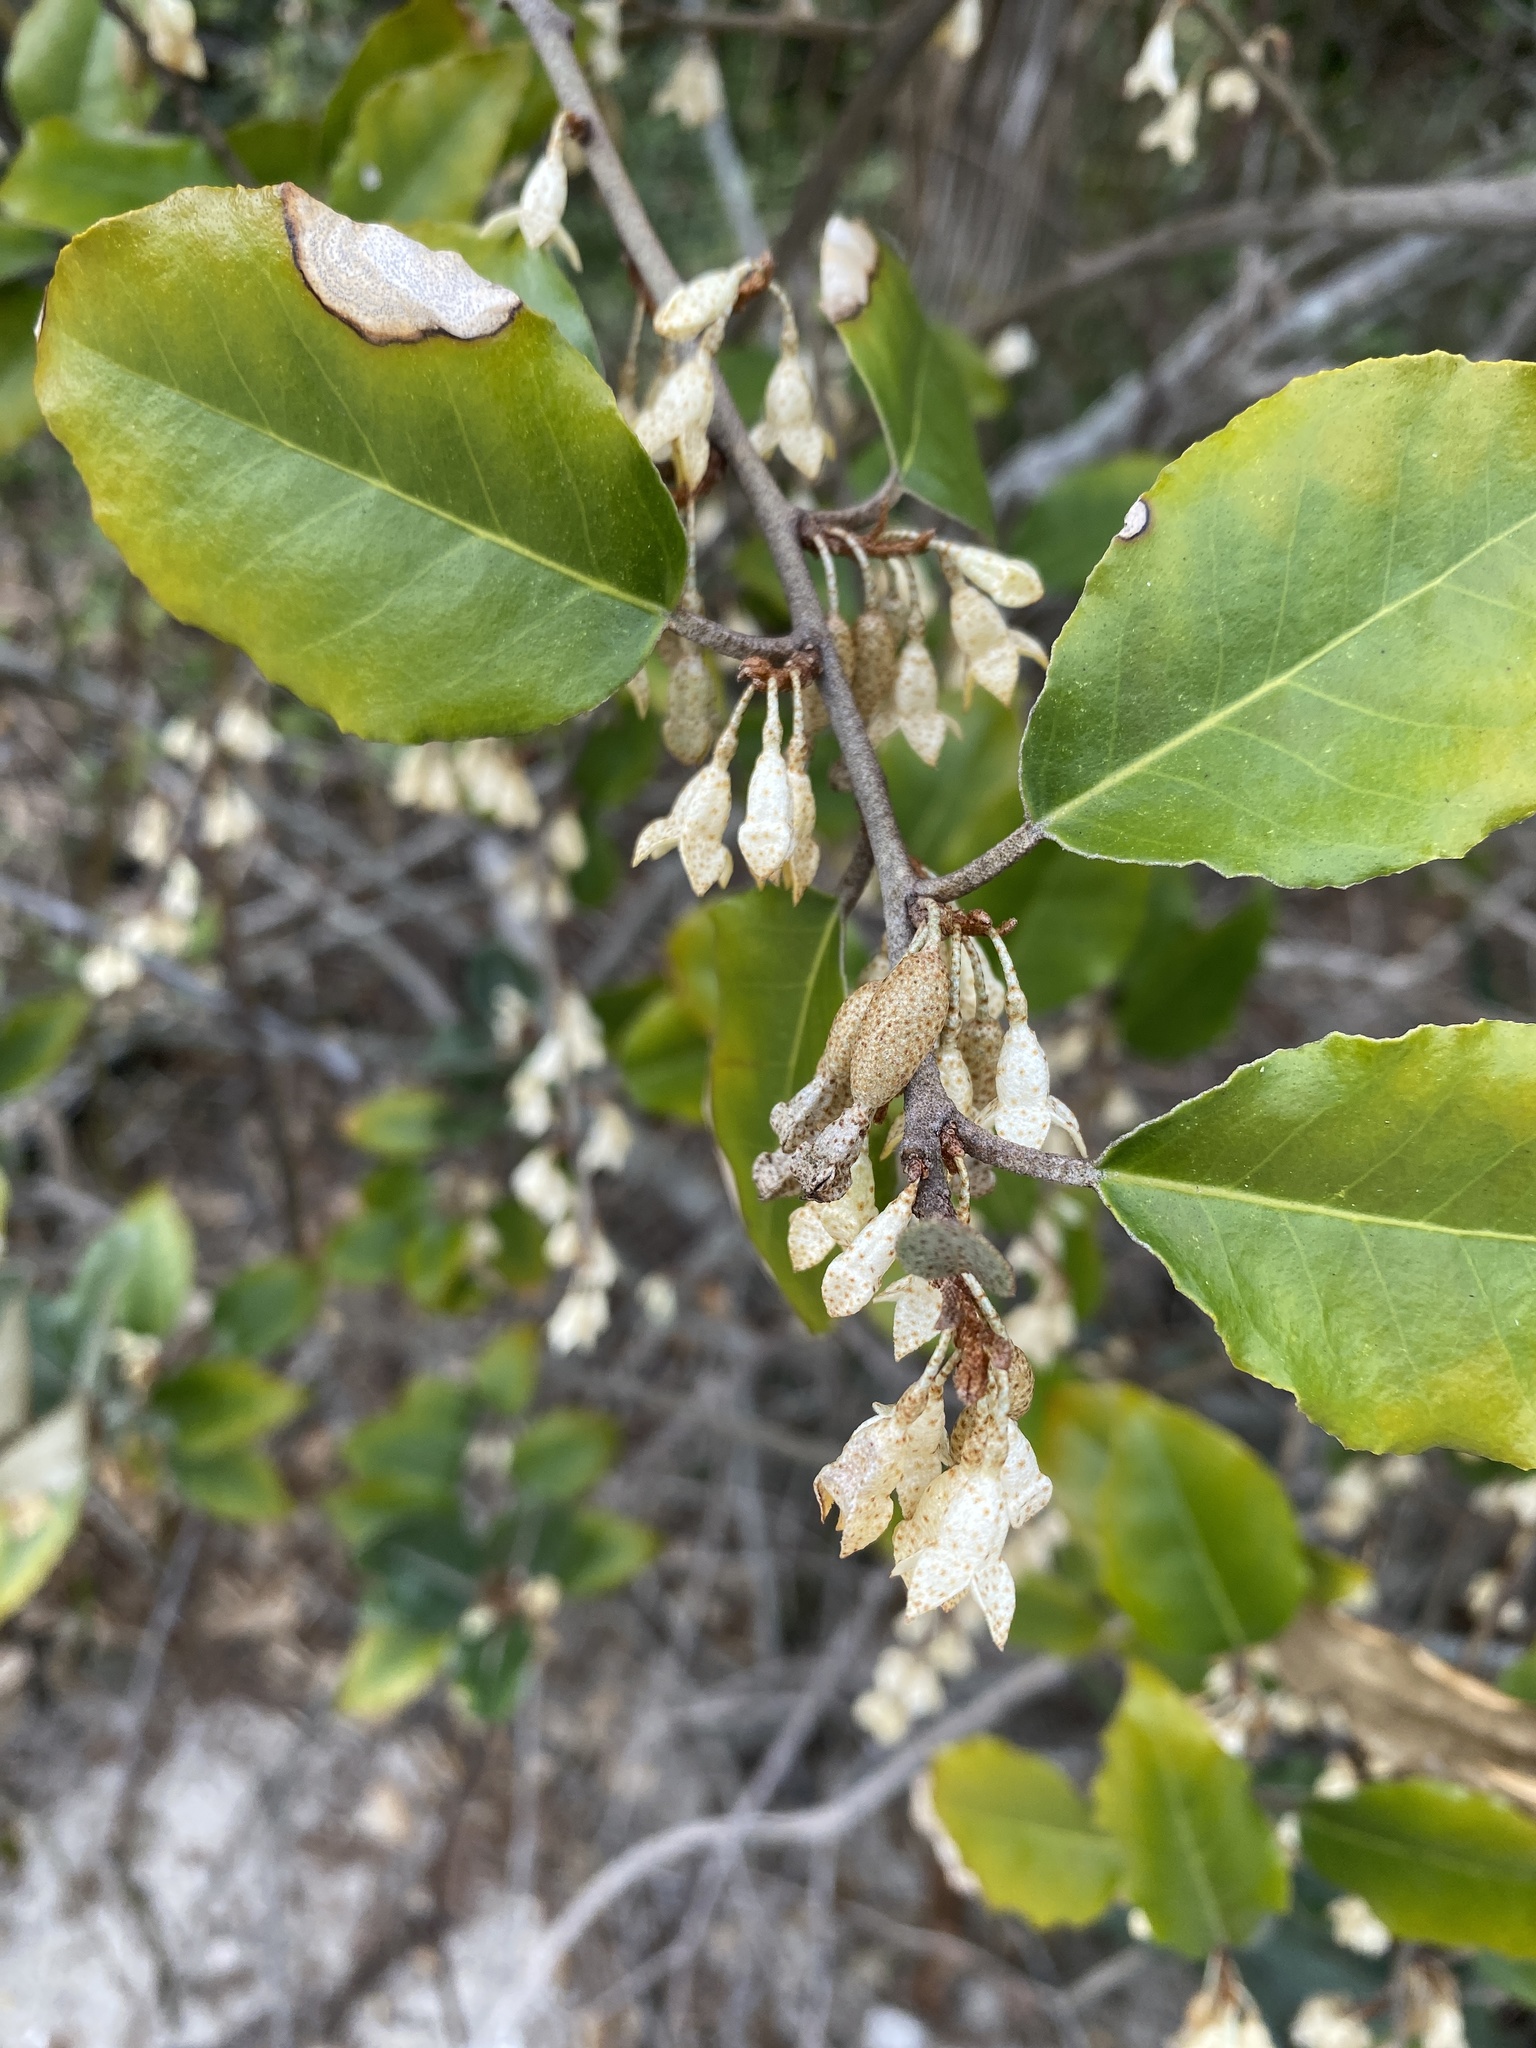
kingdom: Plantae
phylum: Tracheophyta
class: Magnoliopsida
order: Rosales
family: Elaeagnaceae
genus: Elaeagnus
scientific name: Elaeagnus pungens
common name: Spiny oleaster
